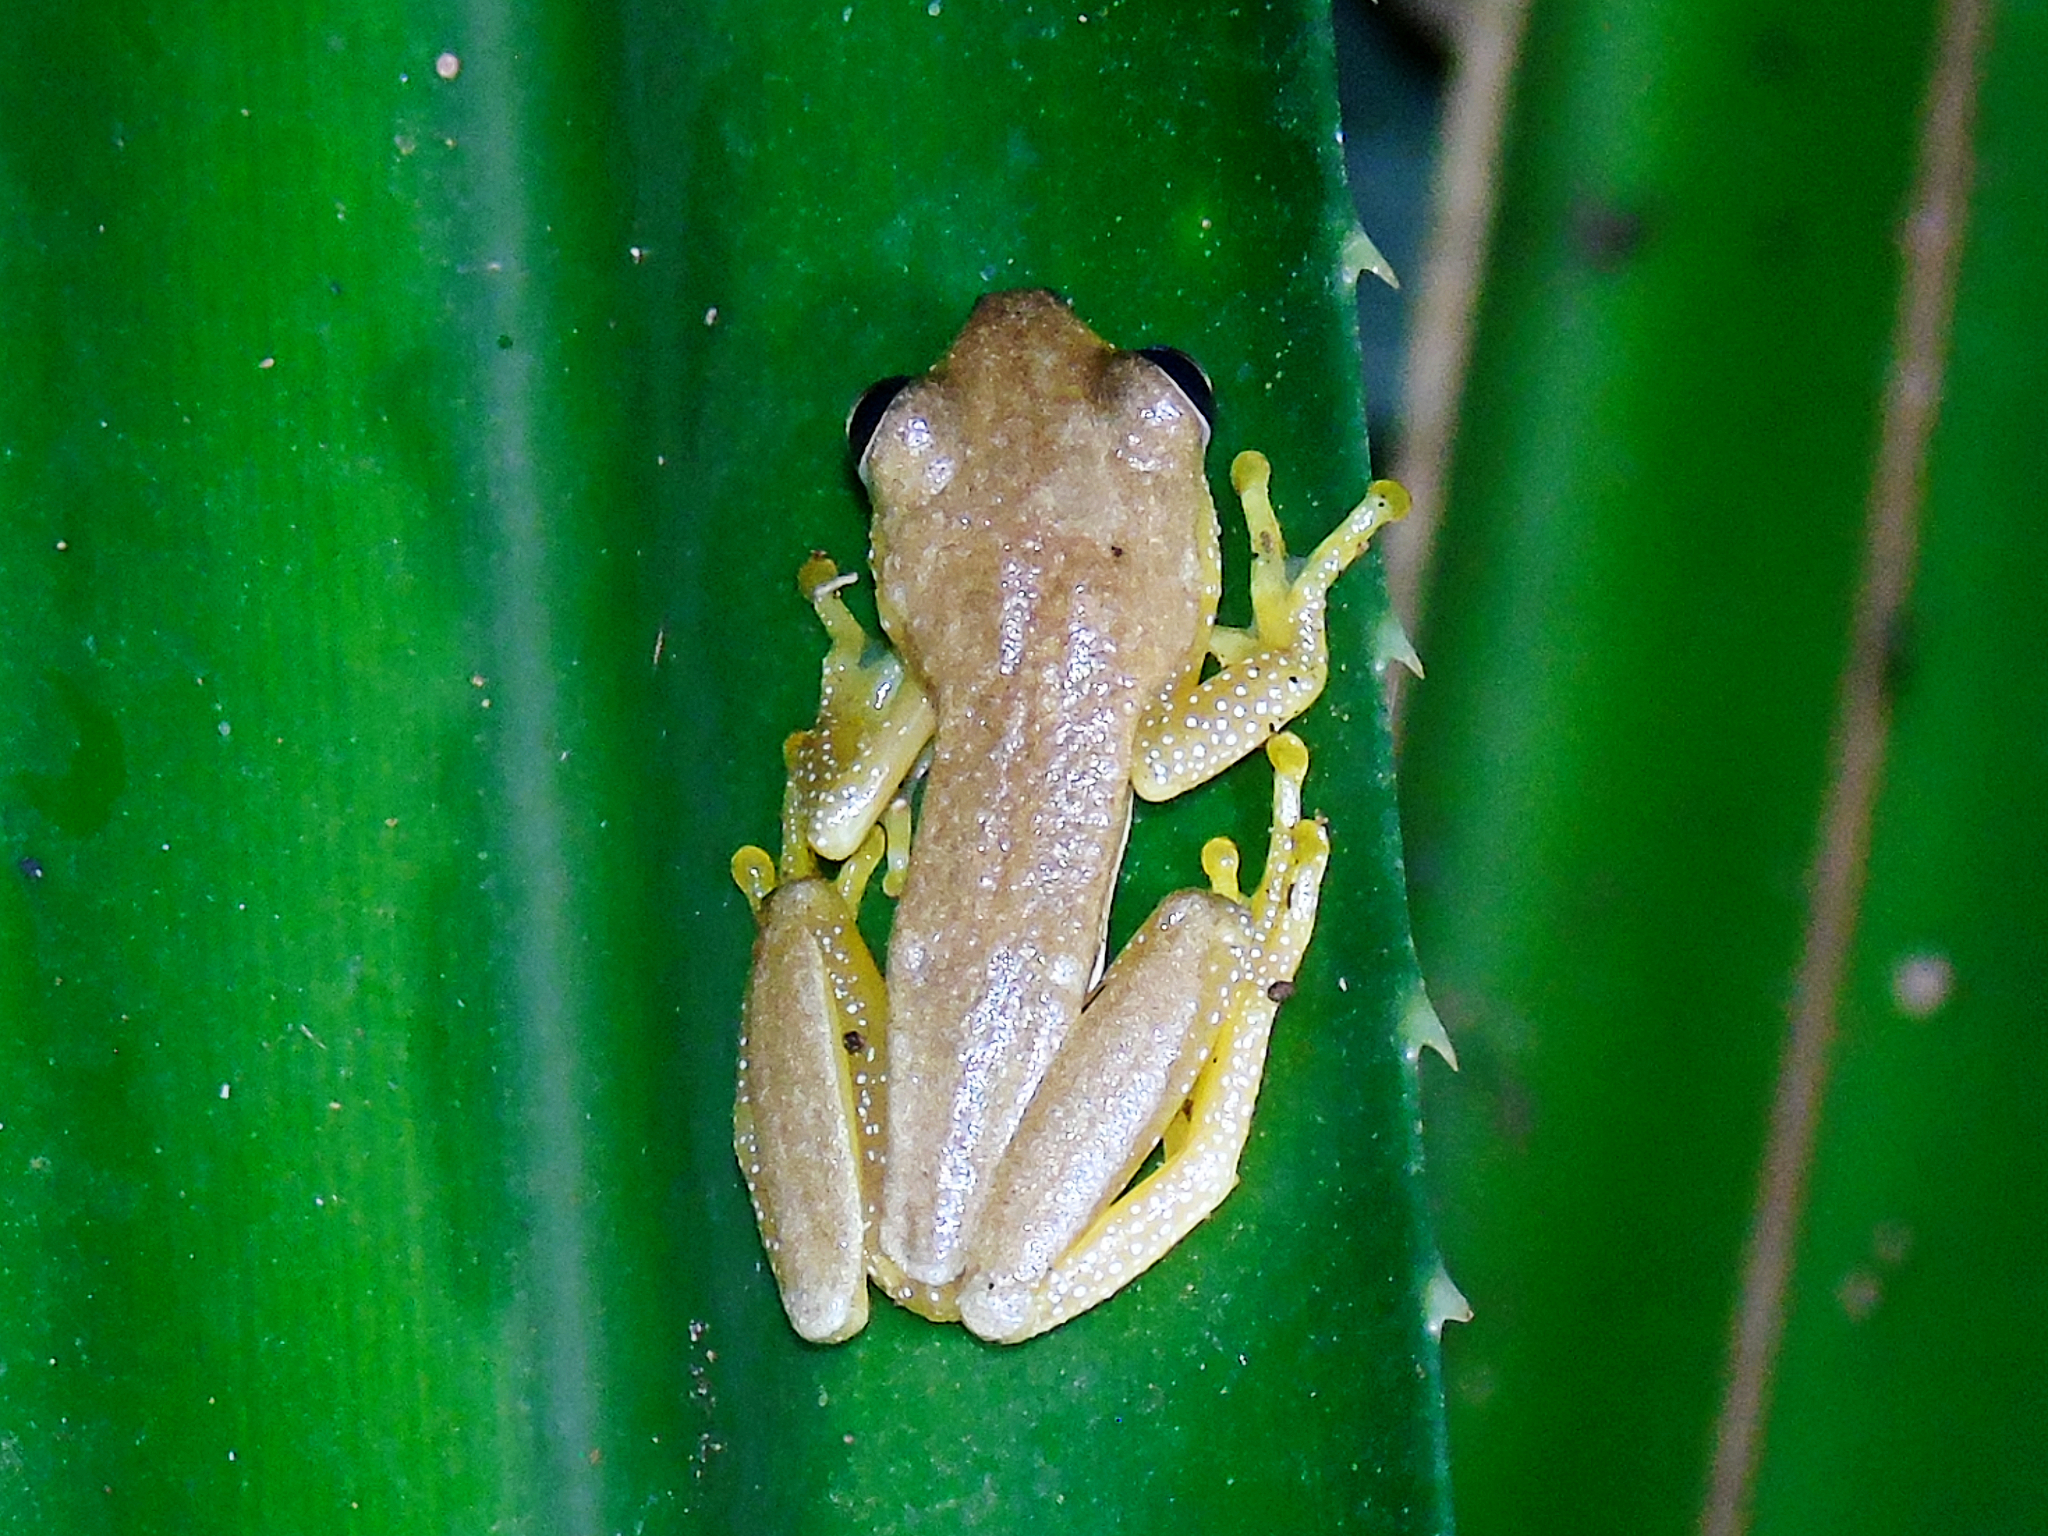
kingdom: Animalia
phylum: Chordata
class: Amphibia
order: Anura
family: Hyperoliidae
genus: Afrixalus
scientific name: Afrixalus fornasini
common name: Fornasini's spiny reed frog
